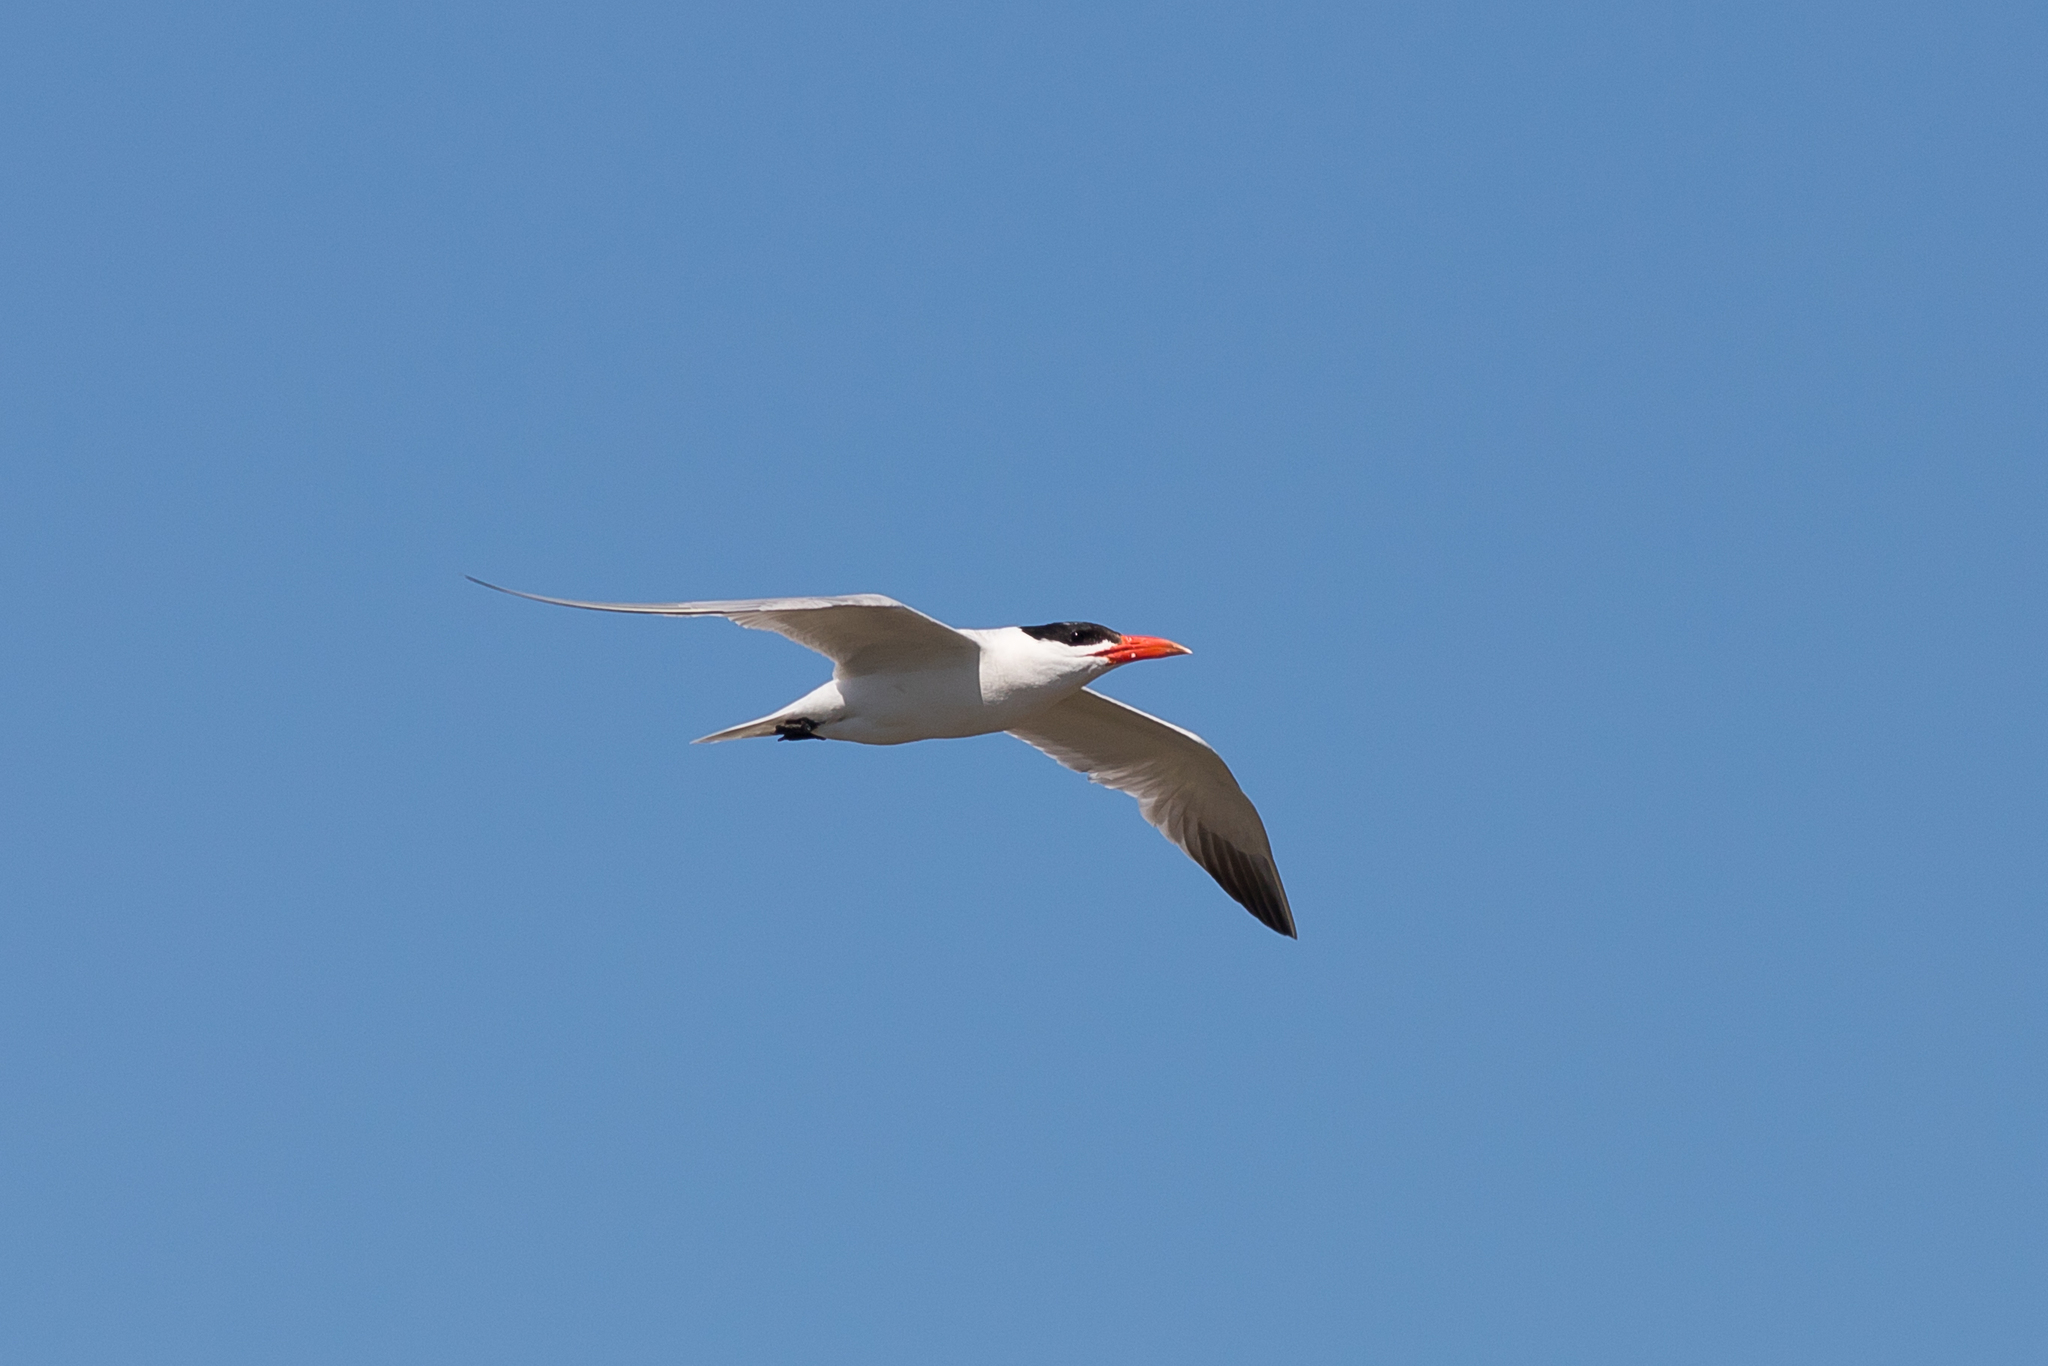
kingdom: Animalia
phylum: Chordata
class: Aves
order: Charadriiformes
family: Laridae
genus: Hydroprogne
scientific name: Hydroprogne caspia
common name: Caspian tern
